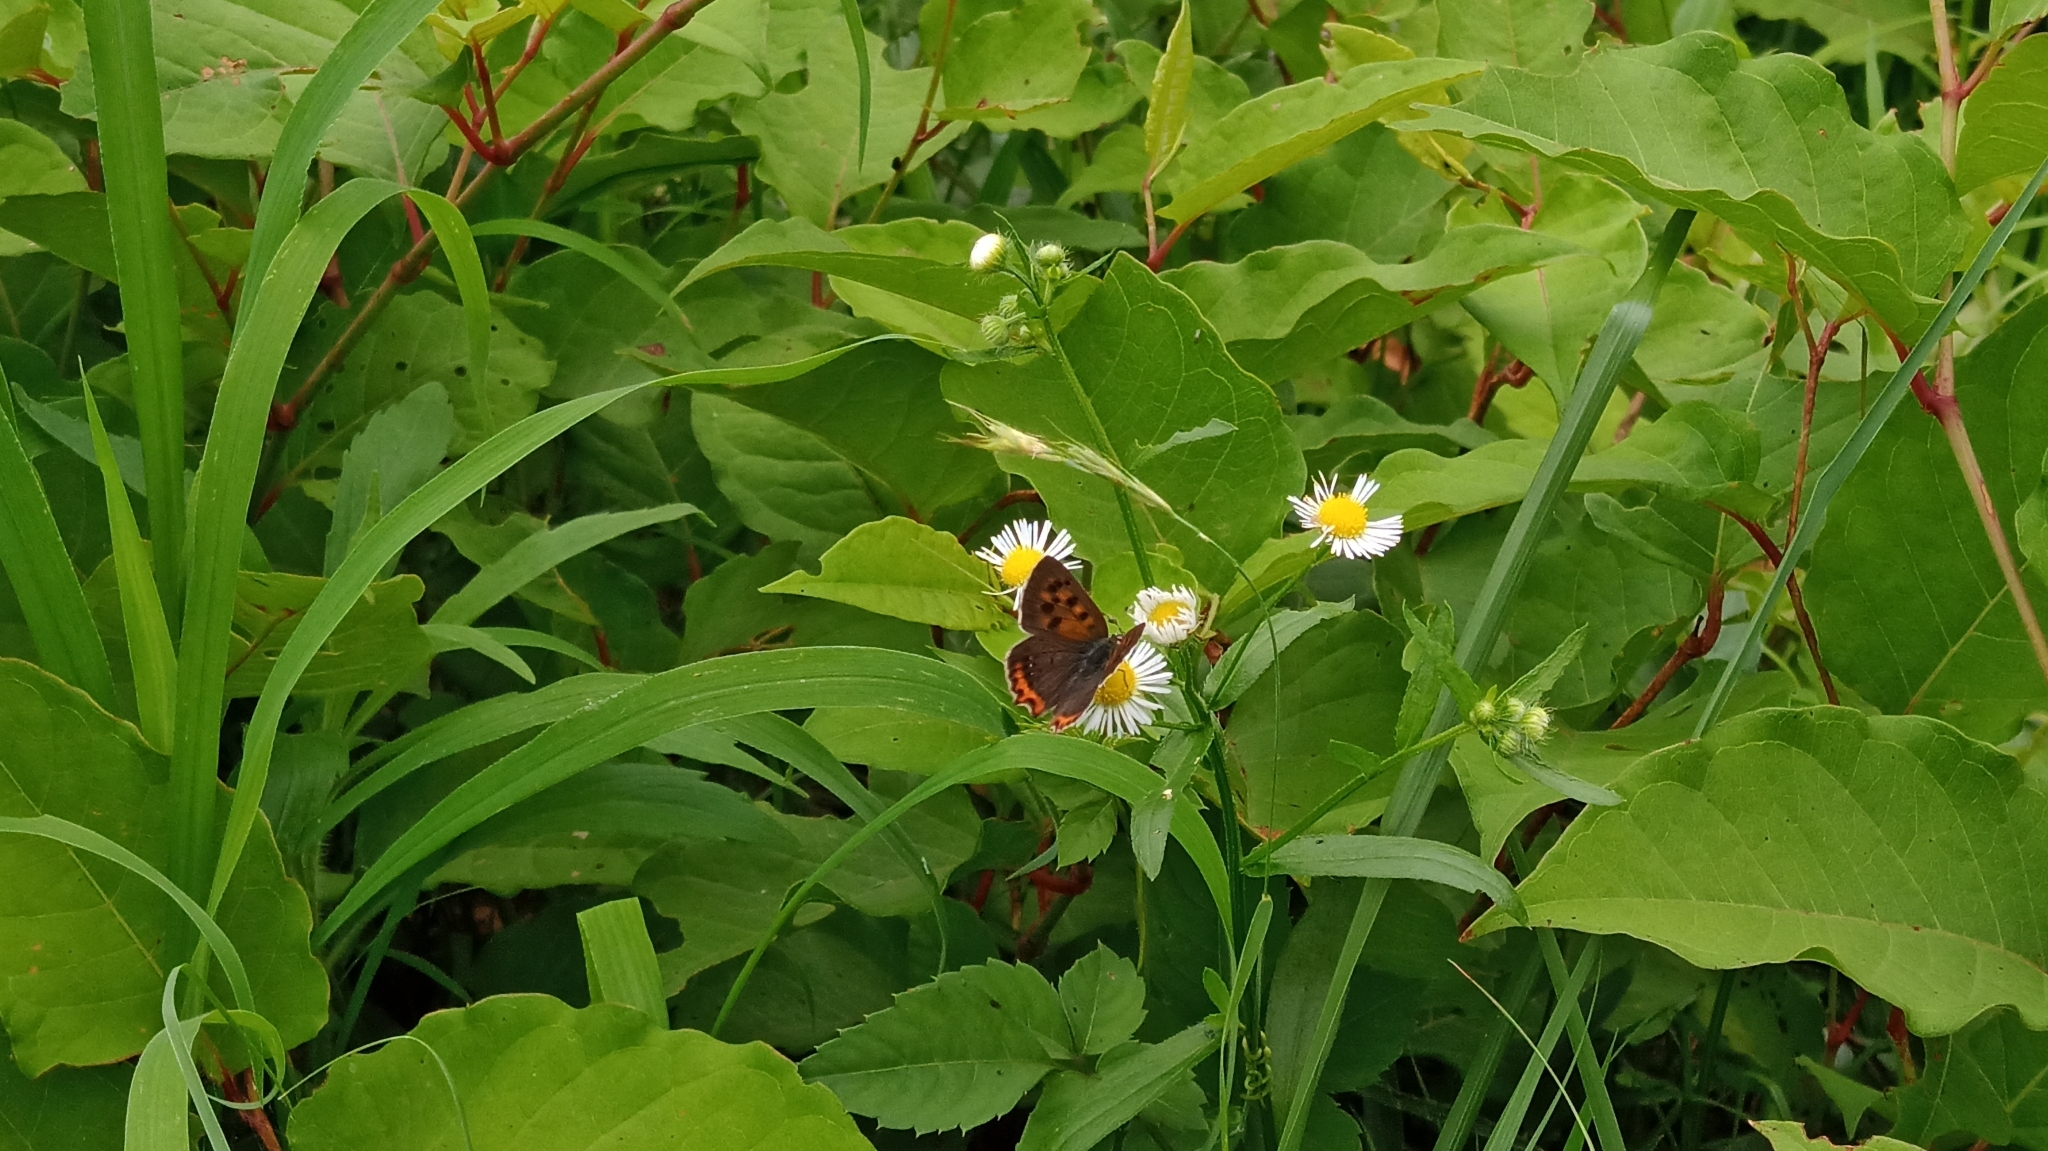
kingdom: Animalia
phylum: Arthropoda
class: Insecta
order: Lepidoptera
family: Lycaenidae
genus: Lycaena
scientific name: Lycaena phlaeas
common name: Small copper
